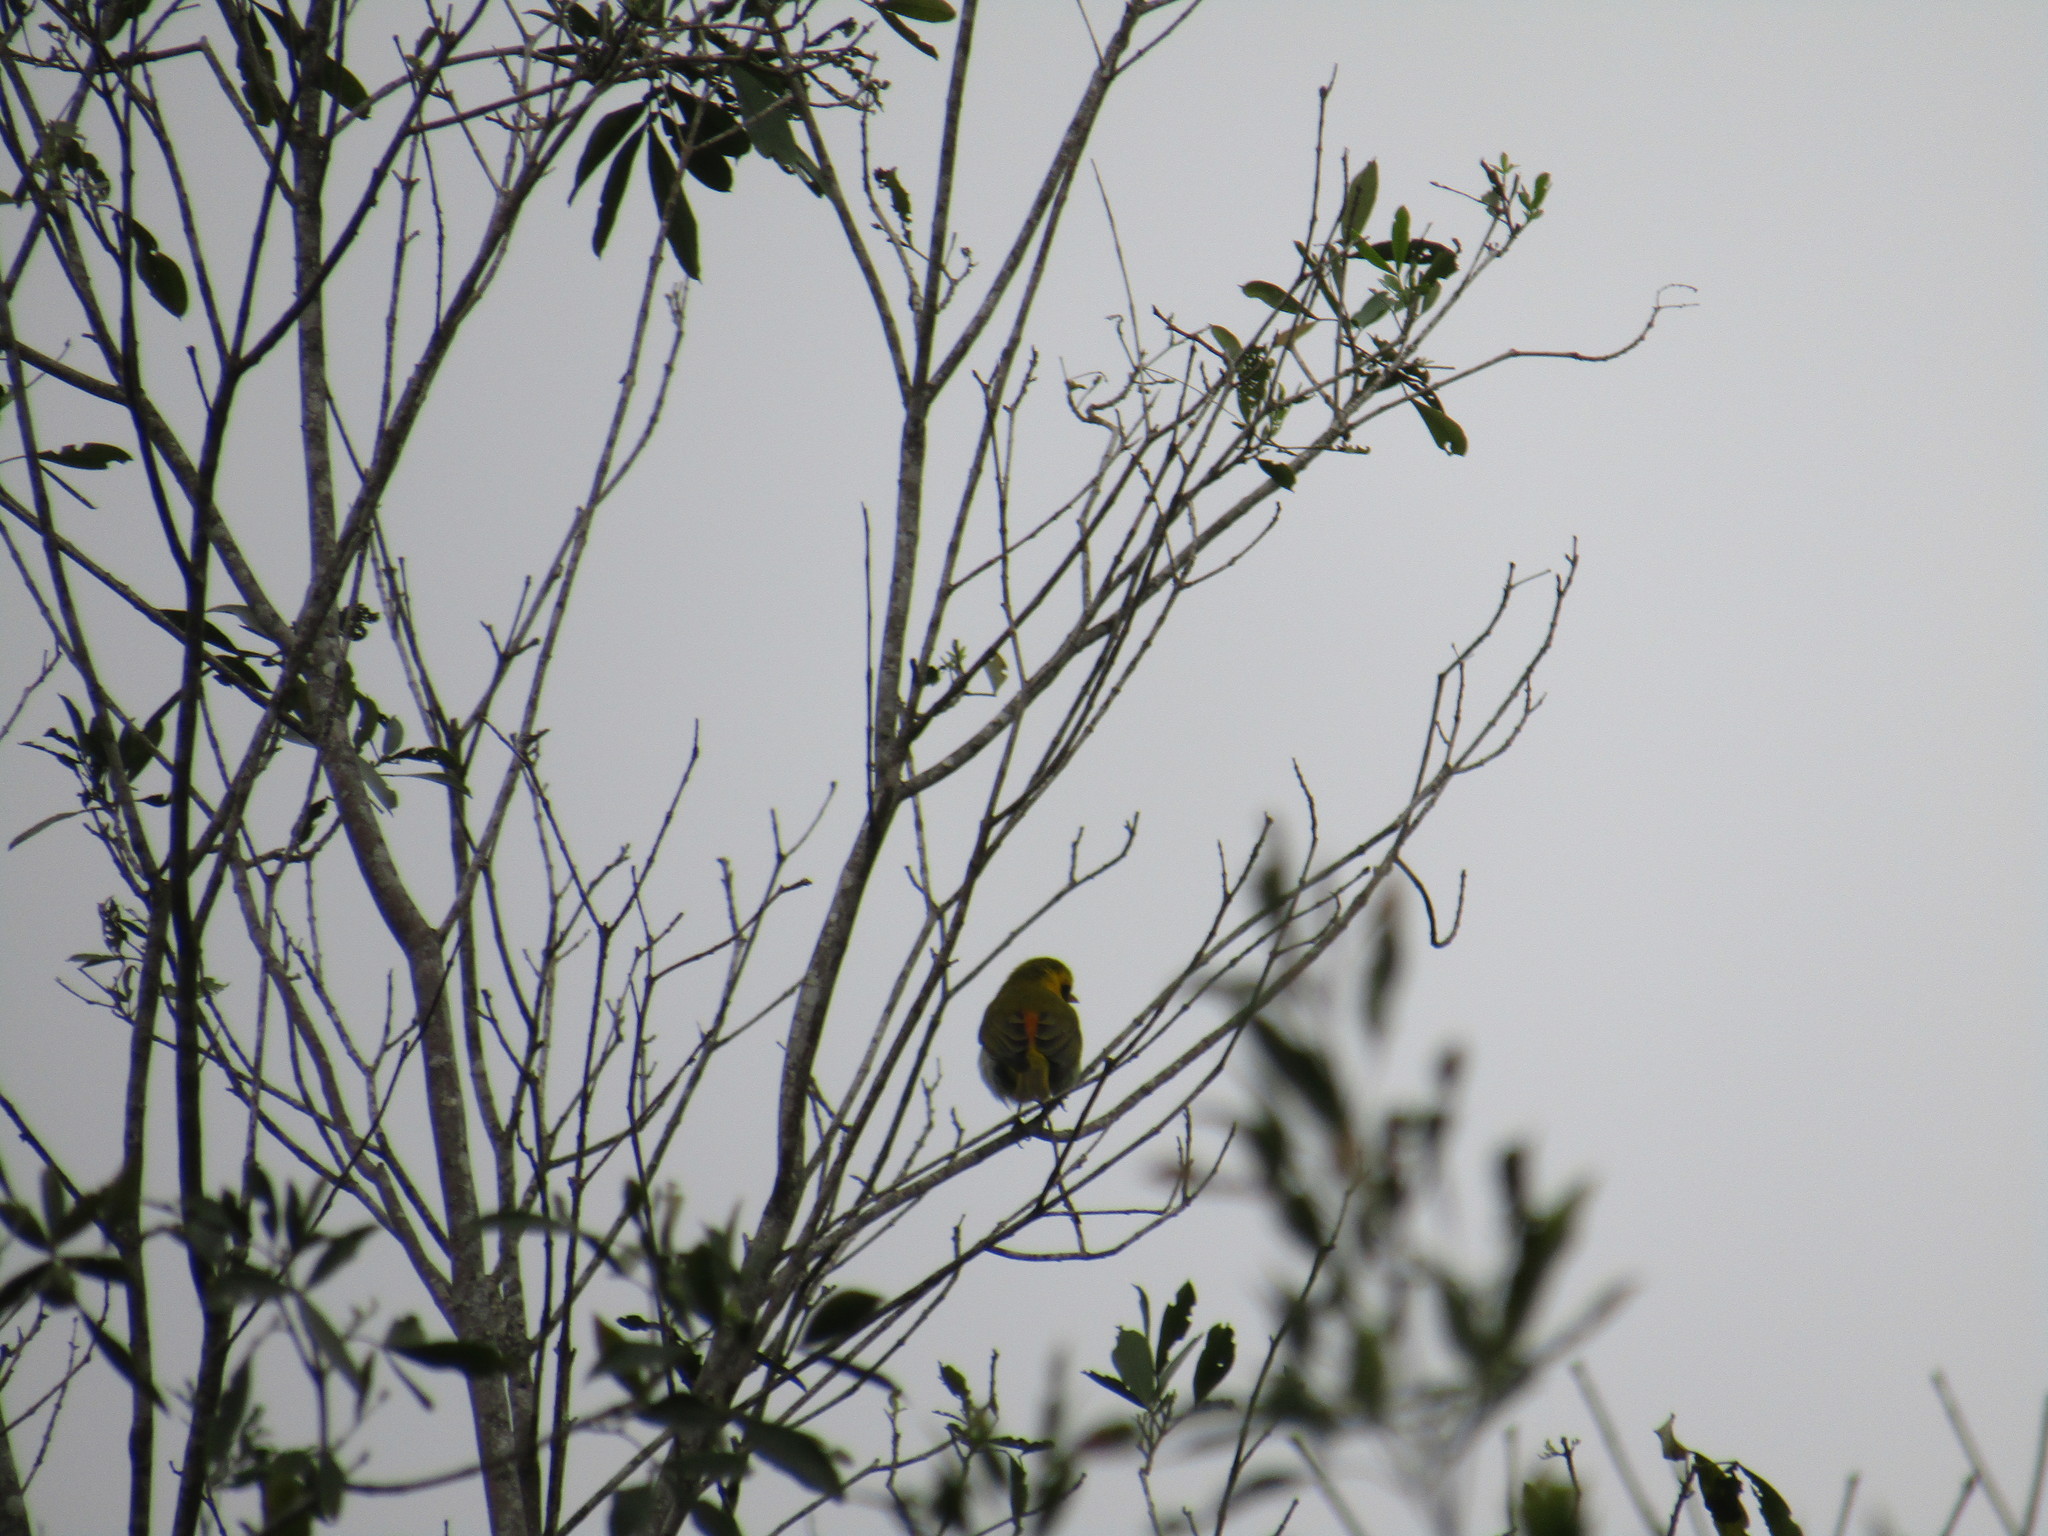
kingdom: Animalia
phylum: Chordata
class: Aves
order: Passeriformes
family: Thraupidae
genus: Hemithraupis
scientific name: Hemithraupis guira
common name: Guira tanager
